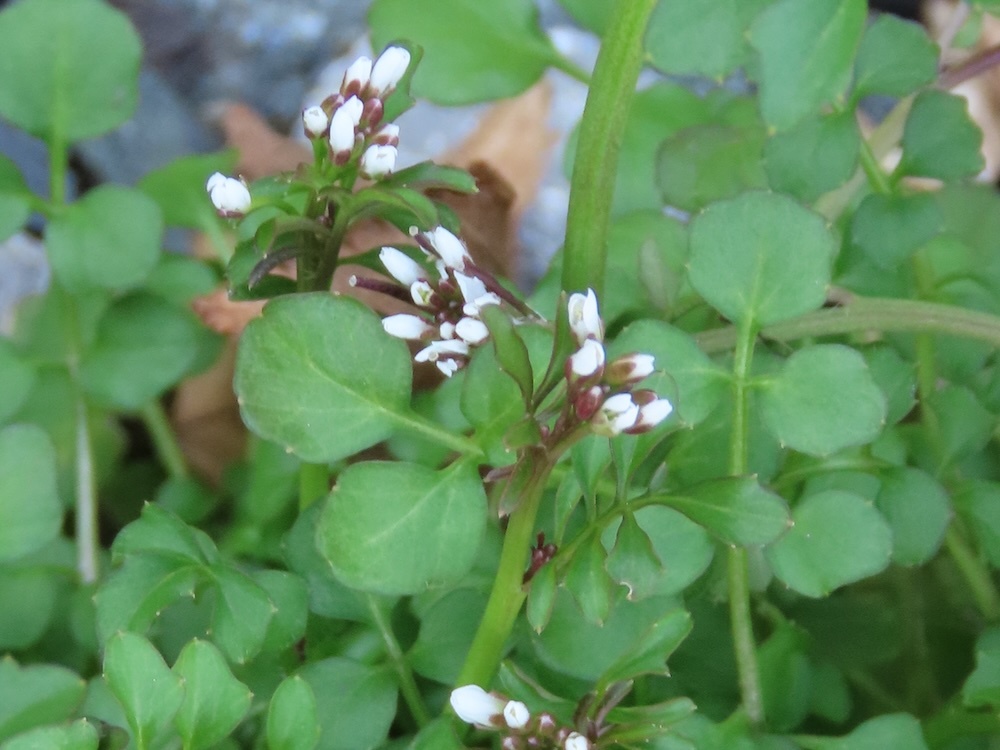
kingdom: Plantae
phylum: Tracheophyta
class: Magnoliopsida
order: Brassicales
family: Brassicaceae
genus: Cardamine
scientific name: Cardamine hirsuta
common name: Hairy bittercress
